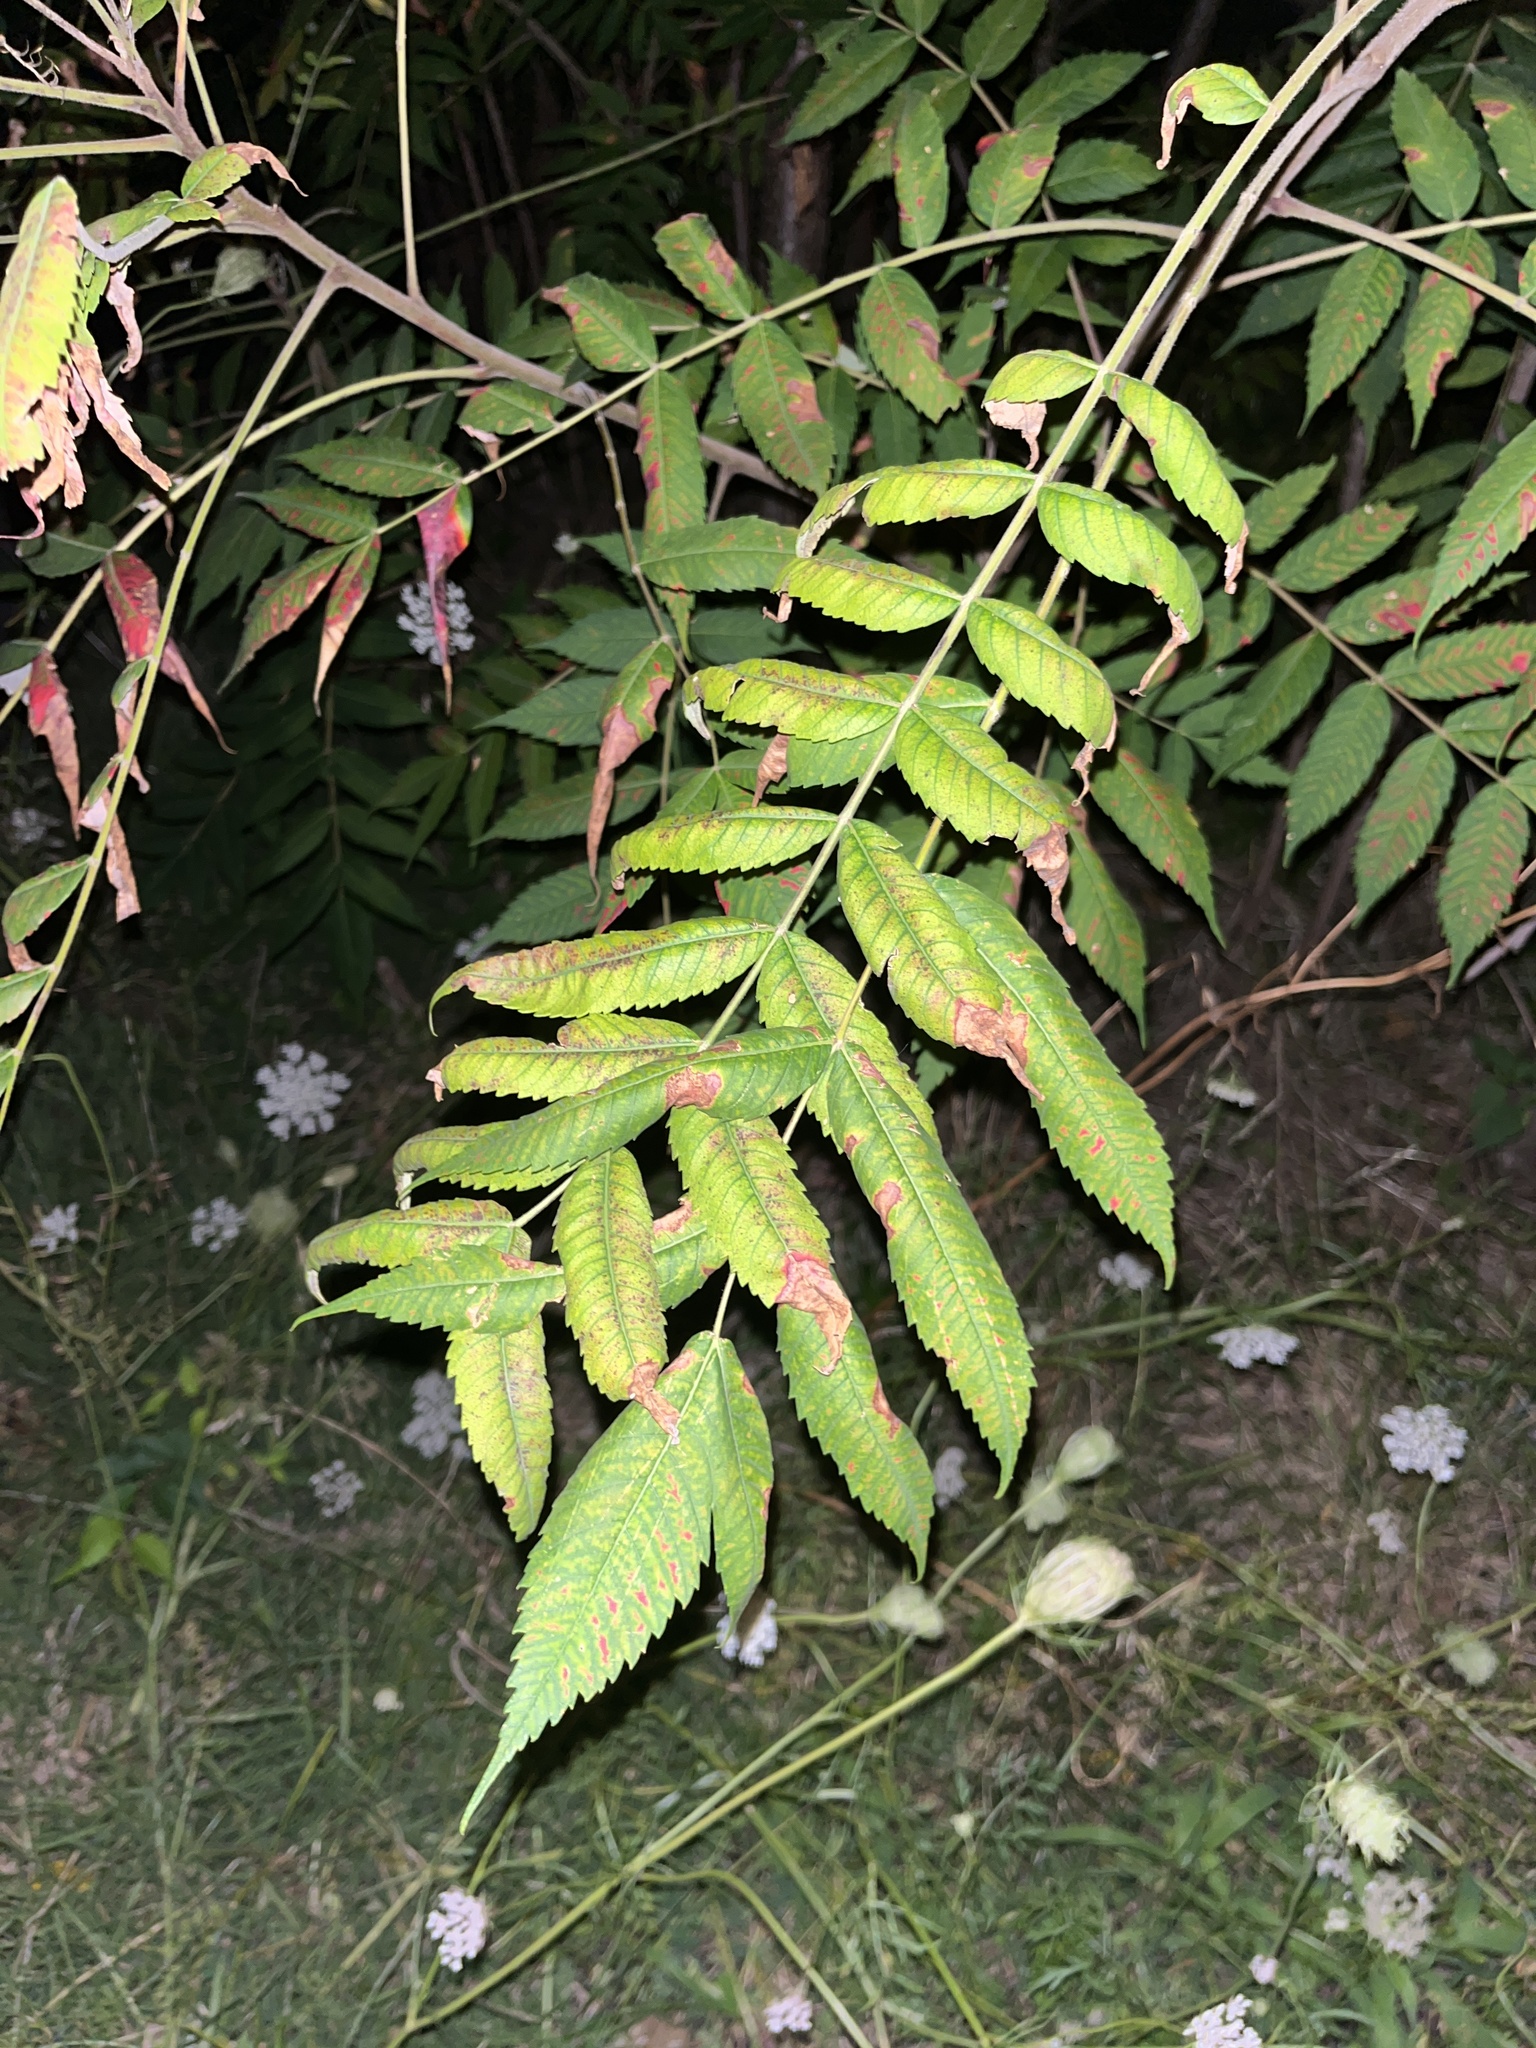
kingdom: Plantae
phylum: Tracheophyta
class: Magnoliopsida
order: Sapindales
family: Anacardiaceae
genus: Rhus
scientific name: Rhus typhina
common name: Staghorn sumac
